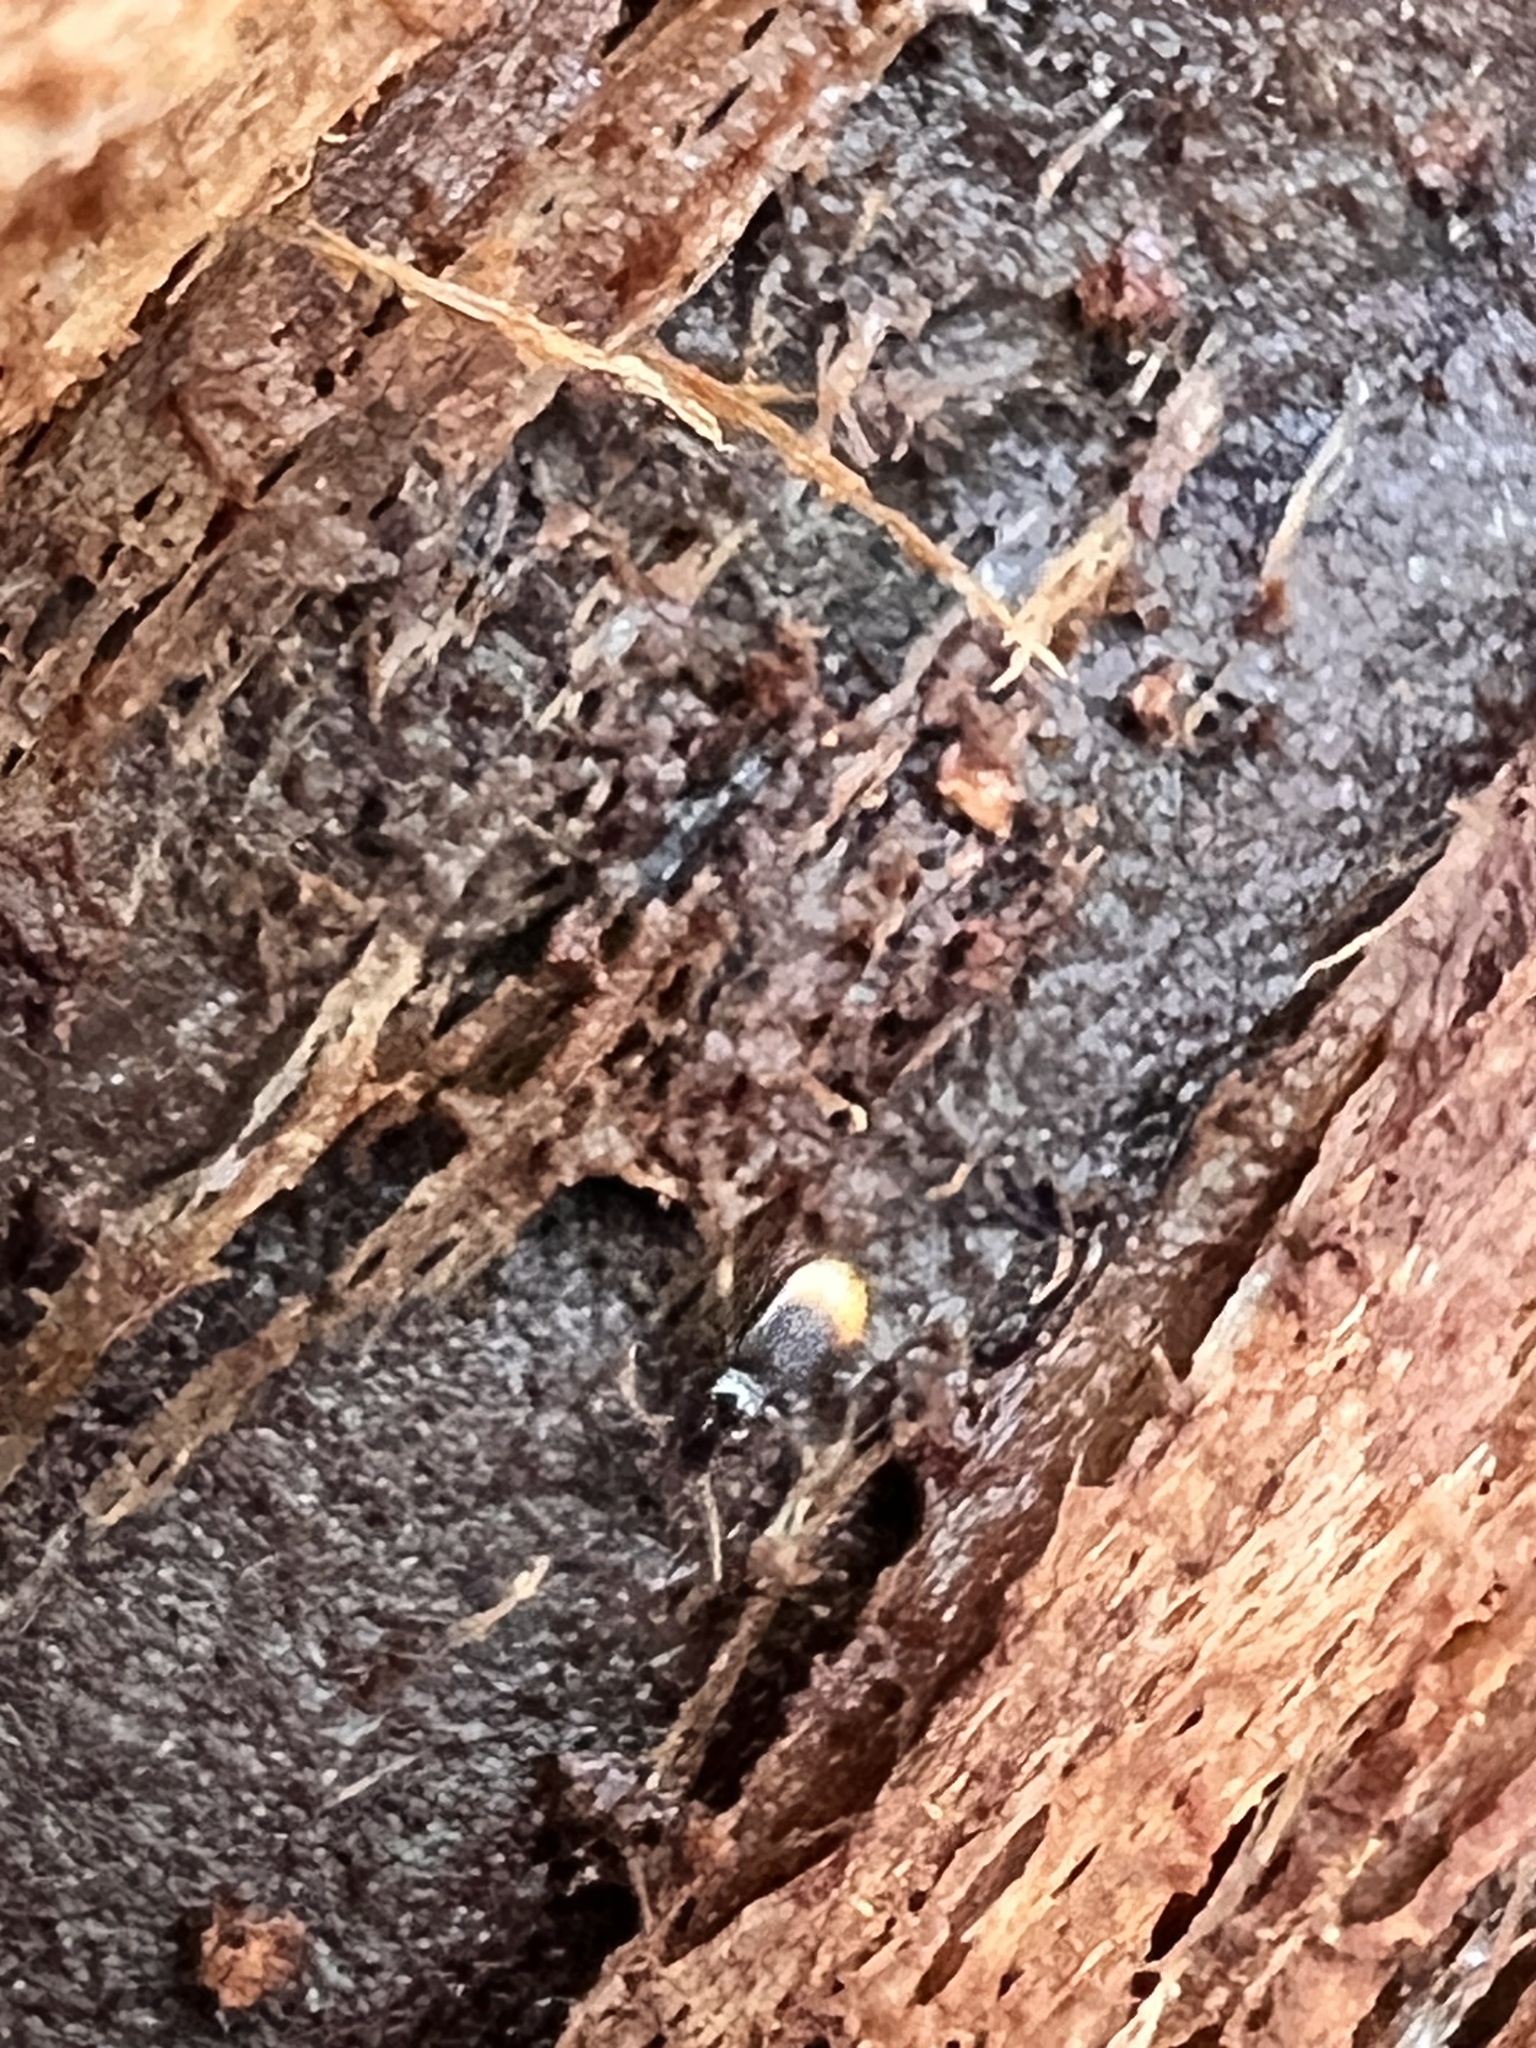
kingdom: Animalia
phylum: Arthropoda
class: Insecta
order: Coleoptera
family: Carabidae
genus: Mioptachys
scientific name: Mioptachys flavicauda
